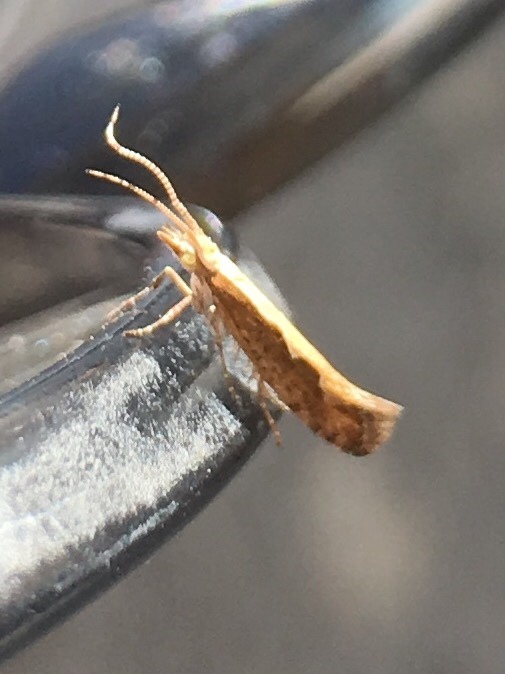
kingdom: Animalia
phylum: Arthropoda
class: Insecta
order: Lepidoptera
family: Plutellidae
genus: Plutella
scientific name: Plutella xylostella
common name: Diamond-back moth
